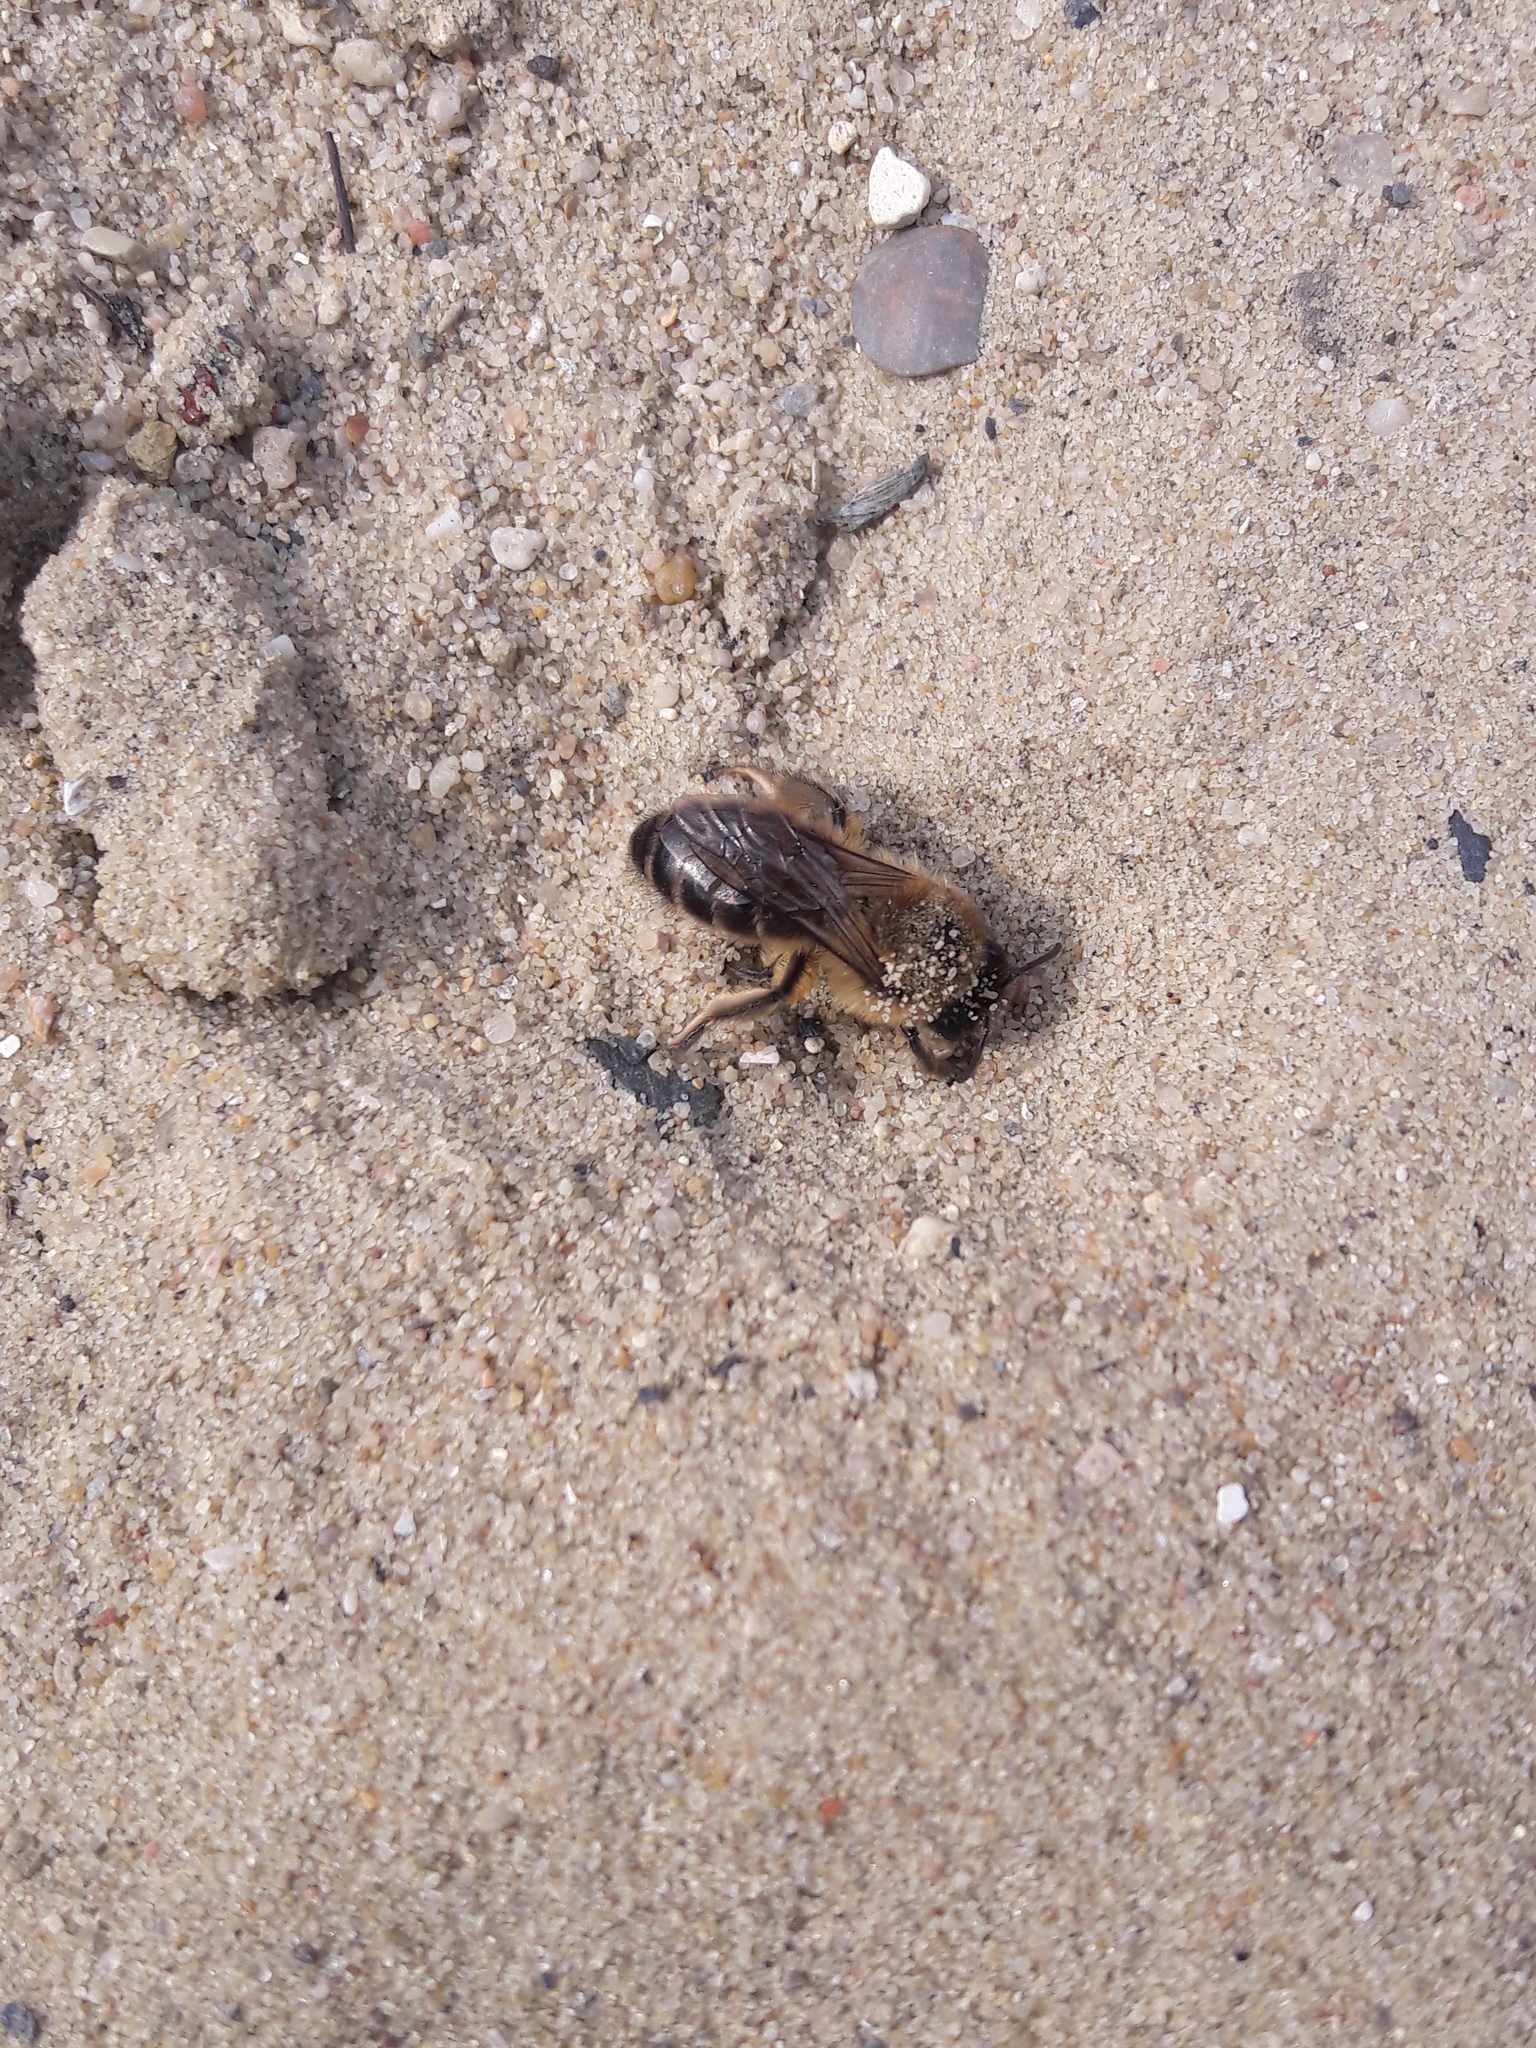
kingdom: Animalia
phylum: Arthropoda
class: Insecta
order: Hymenoptera
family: Colletidae
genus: Colletes
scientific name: Colletes cunicularius
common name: Early colletes
